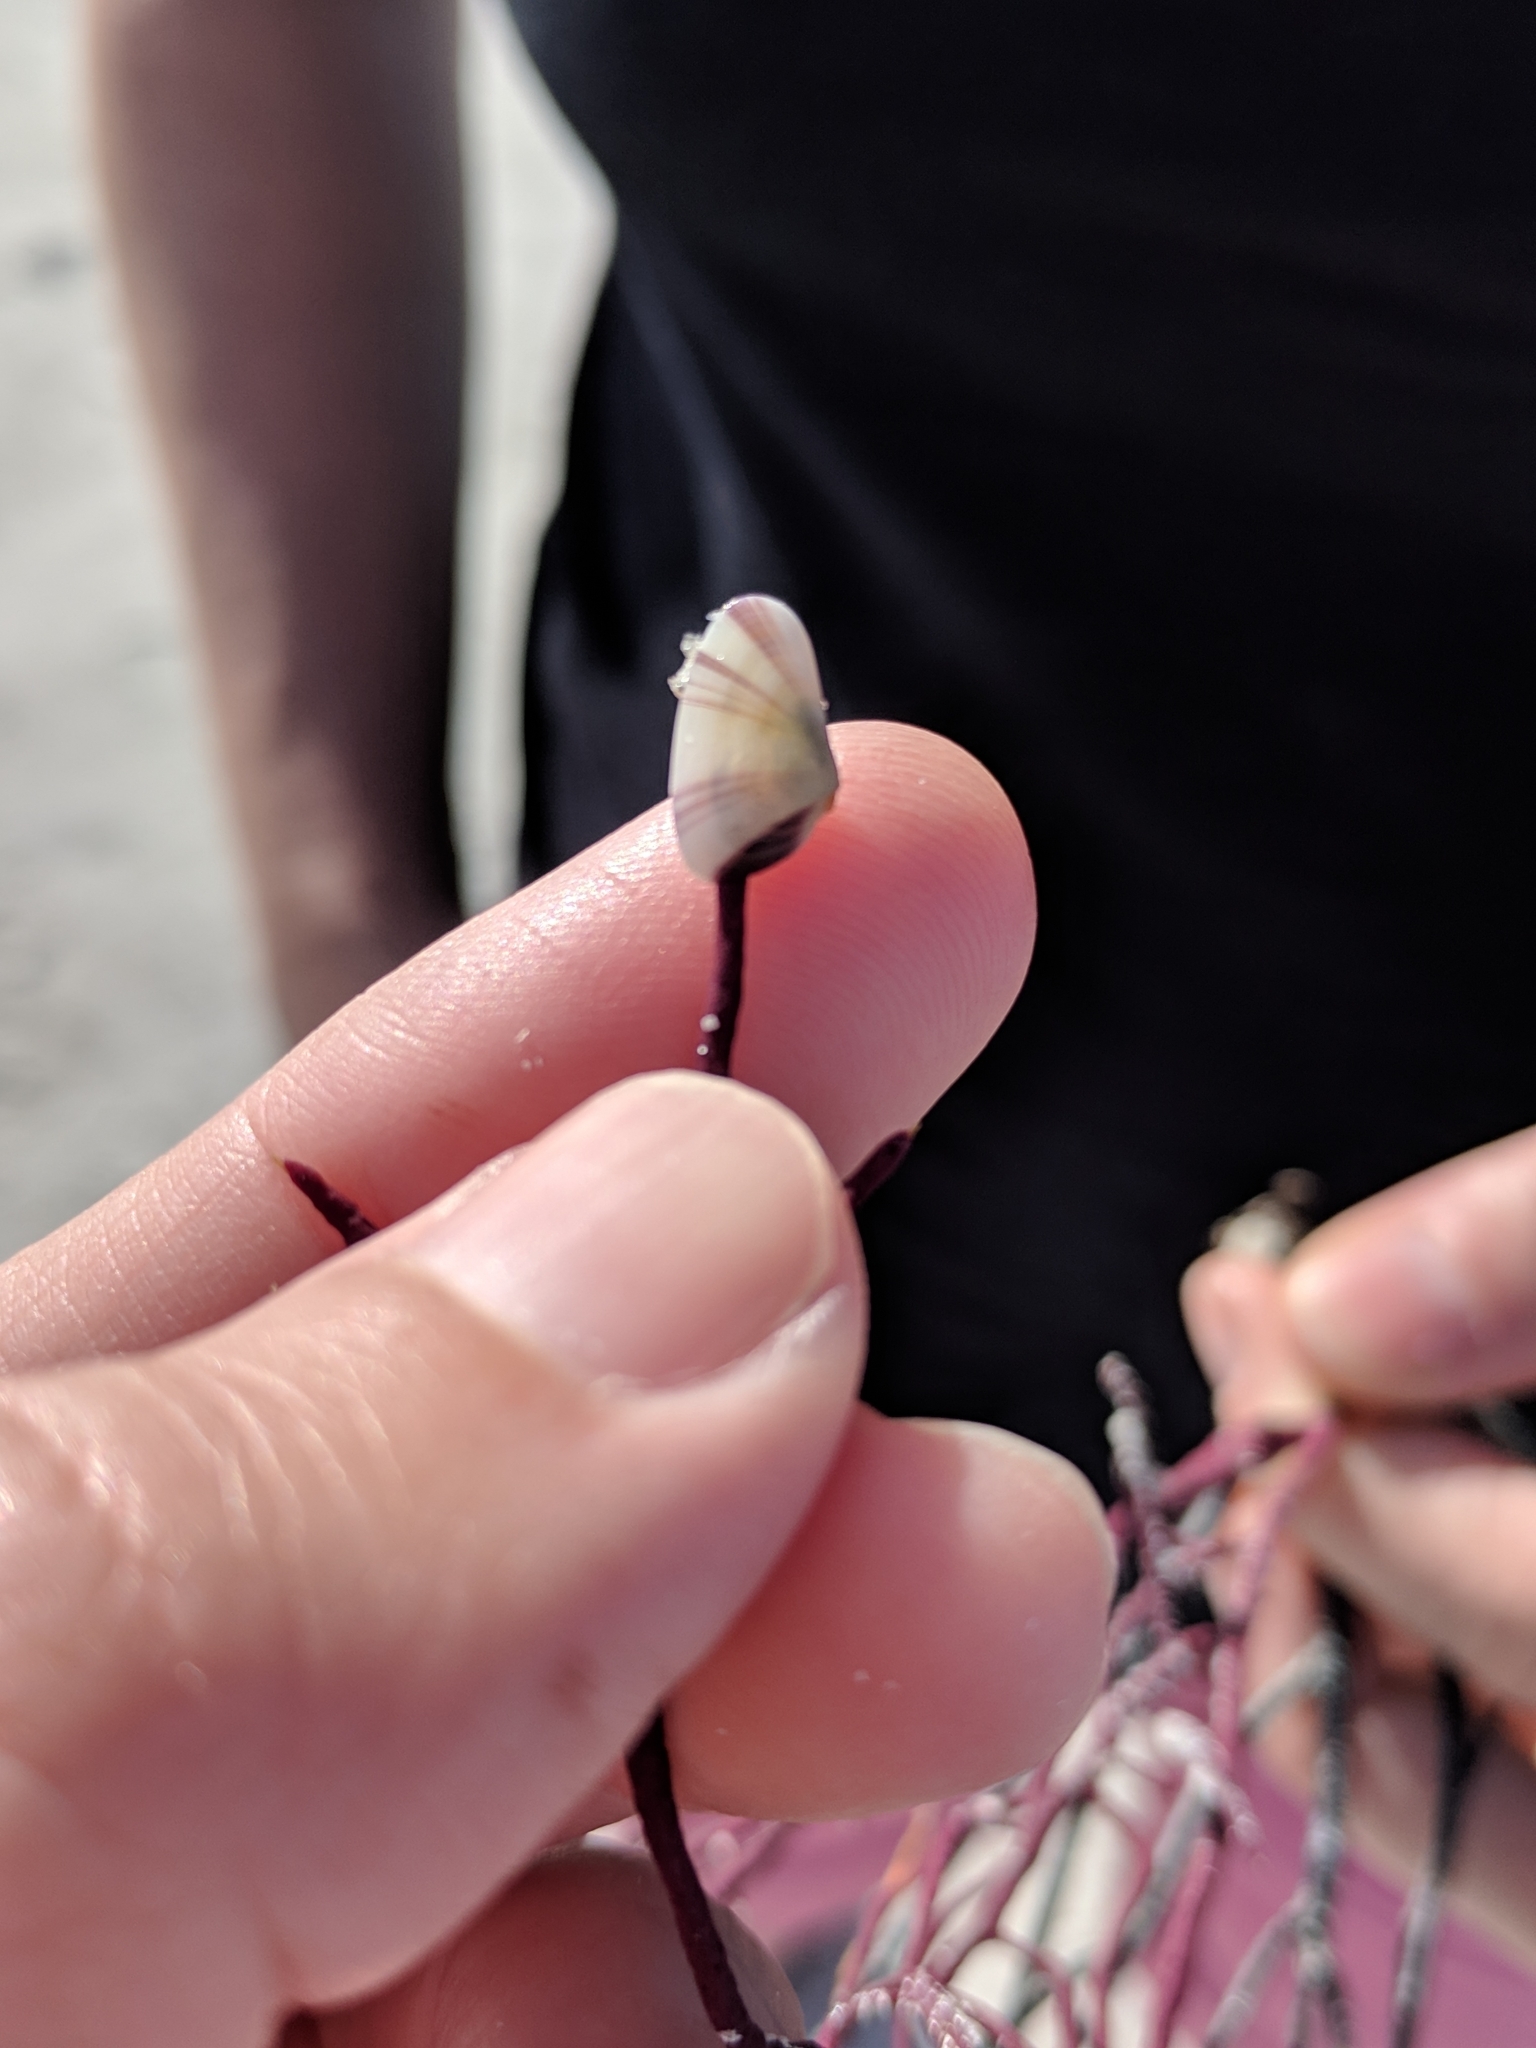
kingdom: Animalia
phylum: Mollusca
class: Bivalvia
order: Cardiida
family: Donacidae
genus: Donax
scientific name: Donax variabilis
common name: Butterfly shell
